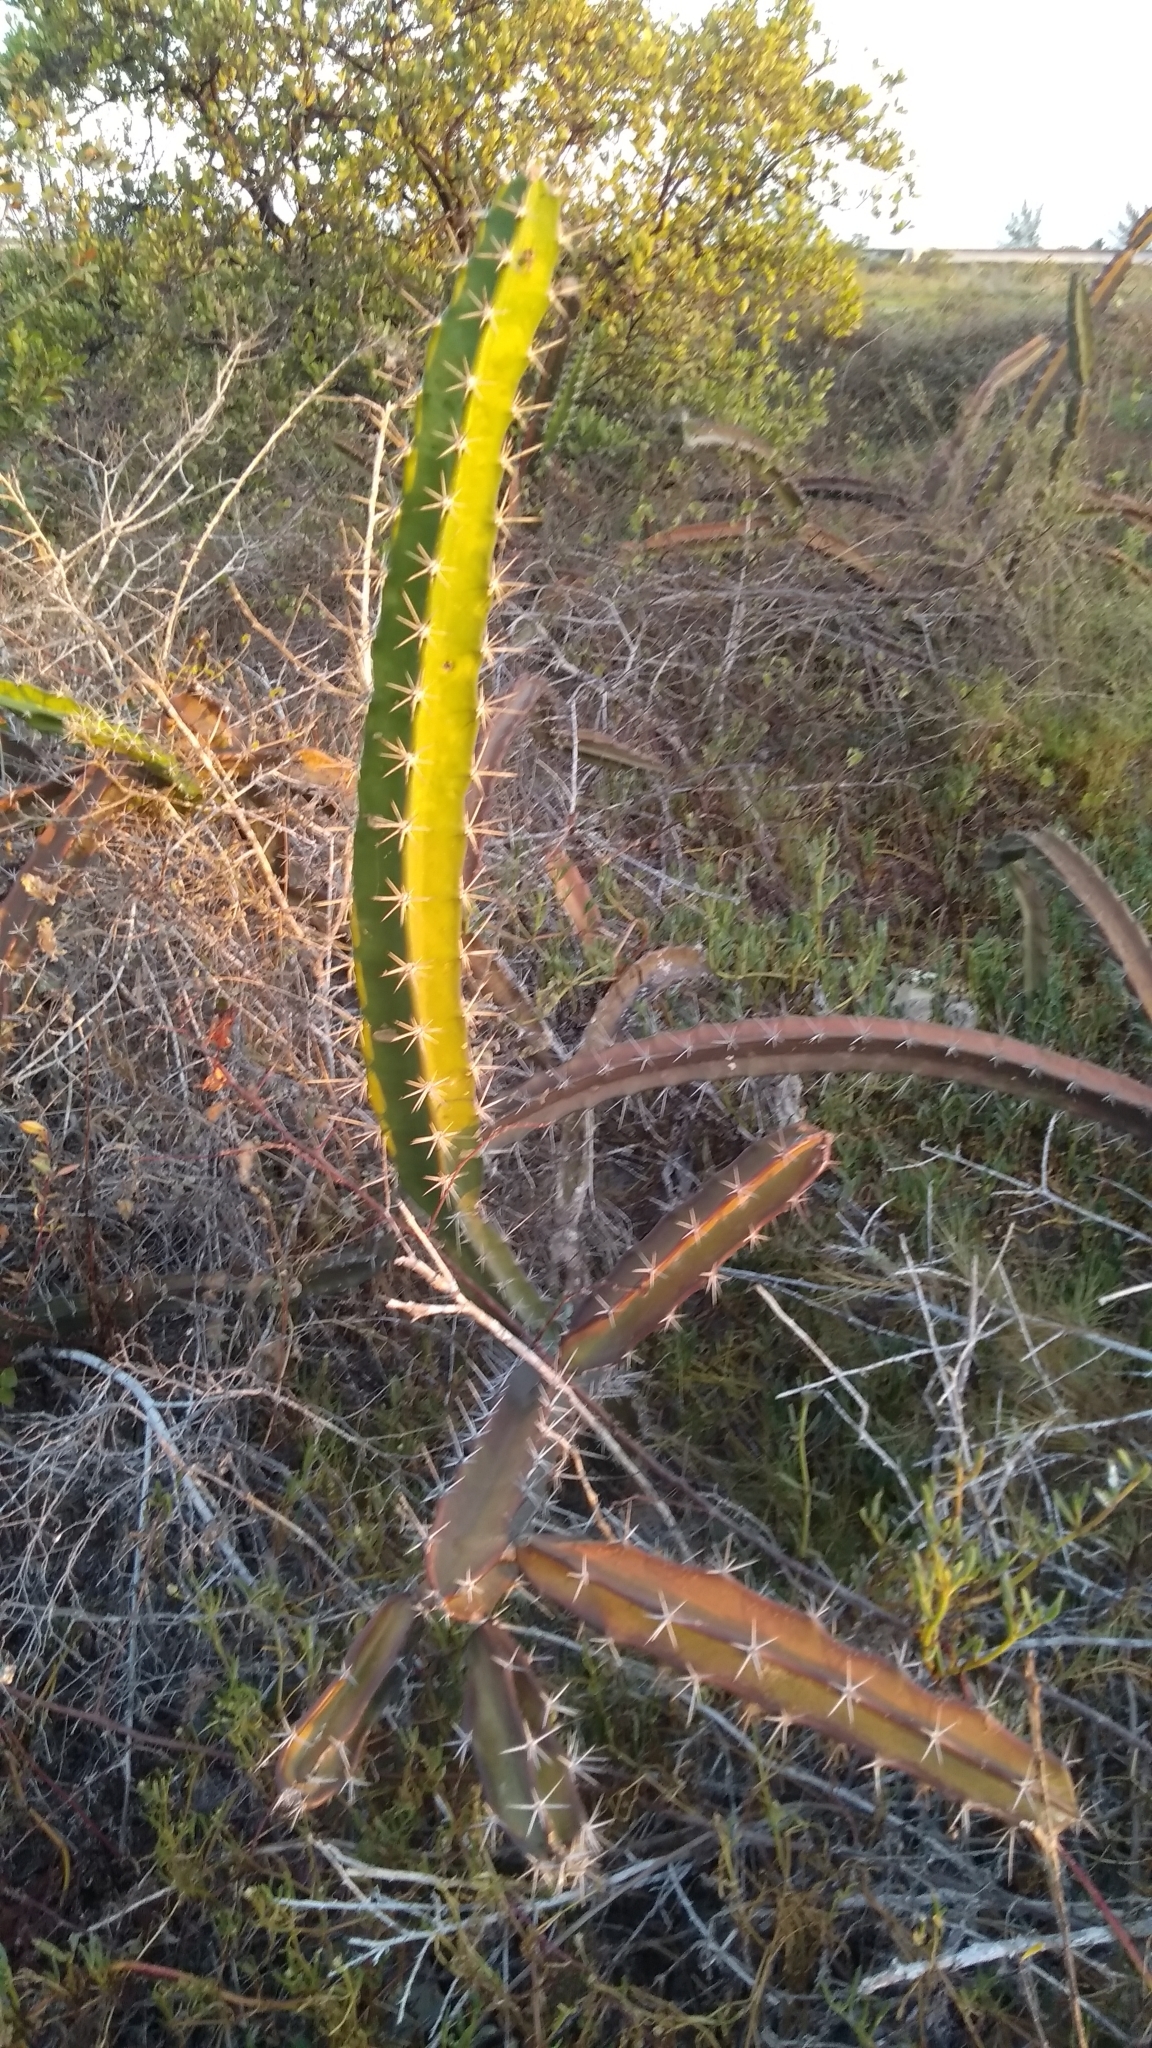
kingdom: Plantae
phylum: Tracheophyta
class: Magnoliopsida
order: Caryophyllales
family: Cactaceae
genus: Acanthocereus
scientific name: Acanthocereus tetragonus
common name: Triangle cactus
